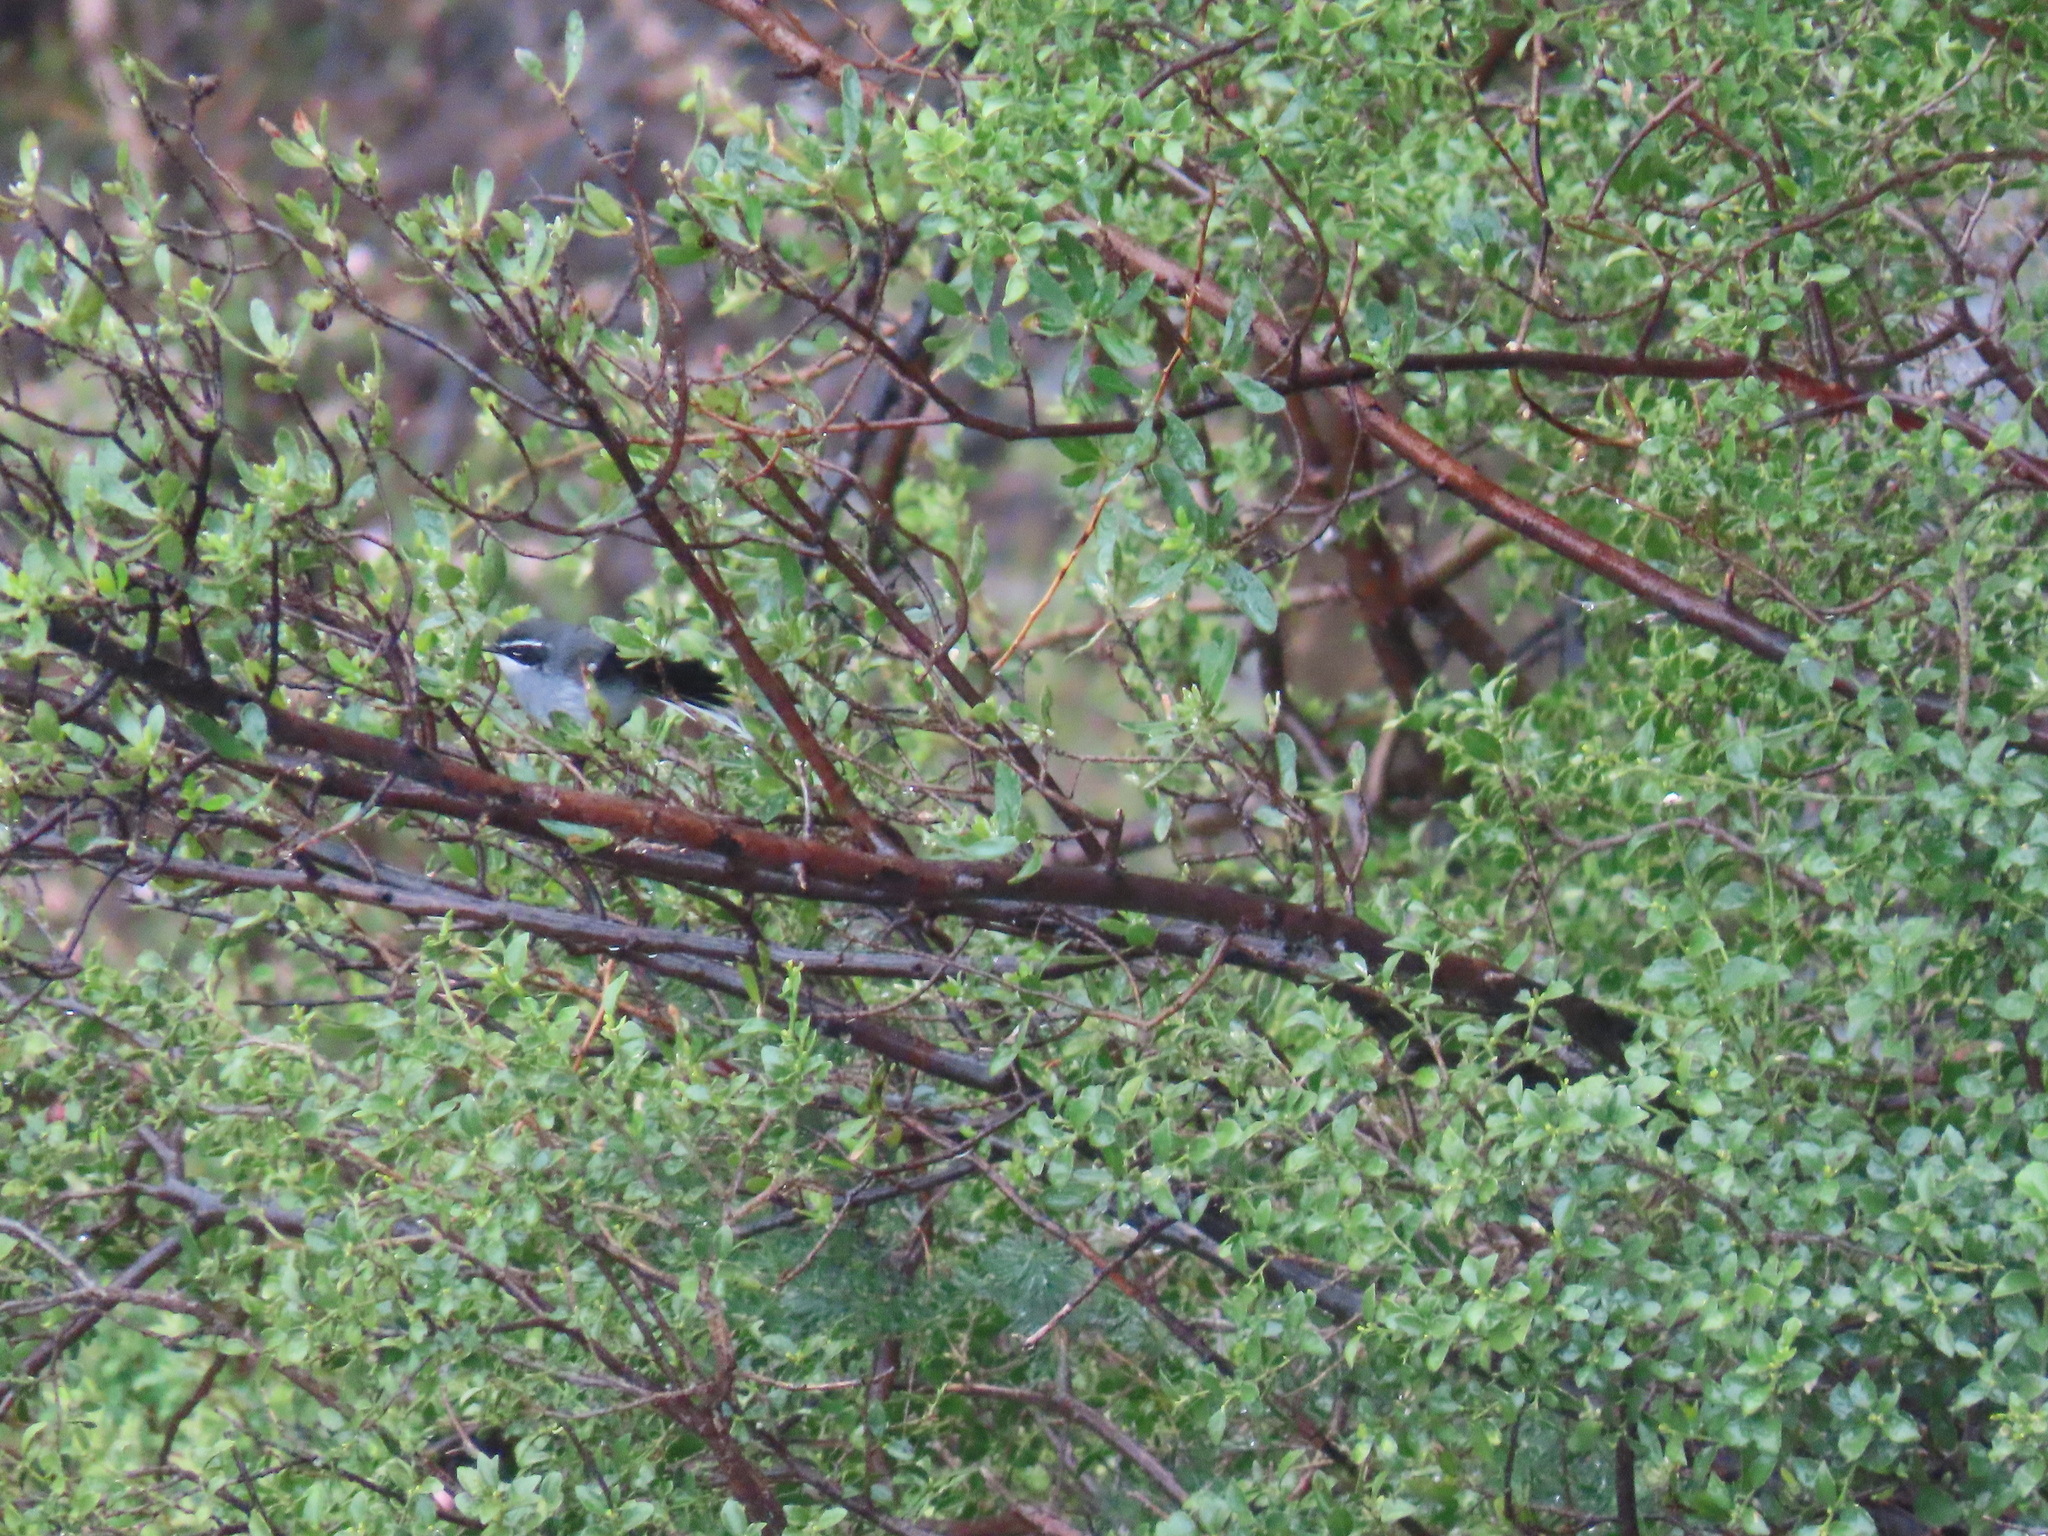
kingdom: Animalia
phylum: Chordata
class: Aves
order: Passeriformes
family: Stenostiridae
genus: Stenostira
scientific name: Stenostira scita
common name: Fairy flycatcher
